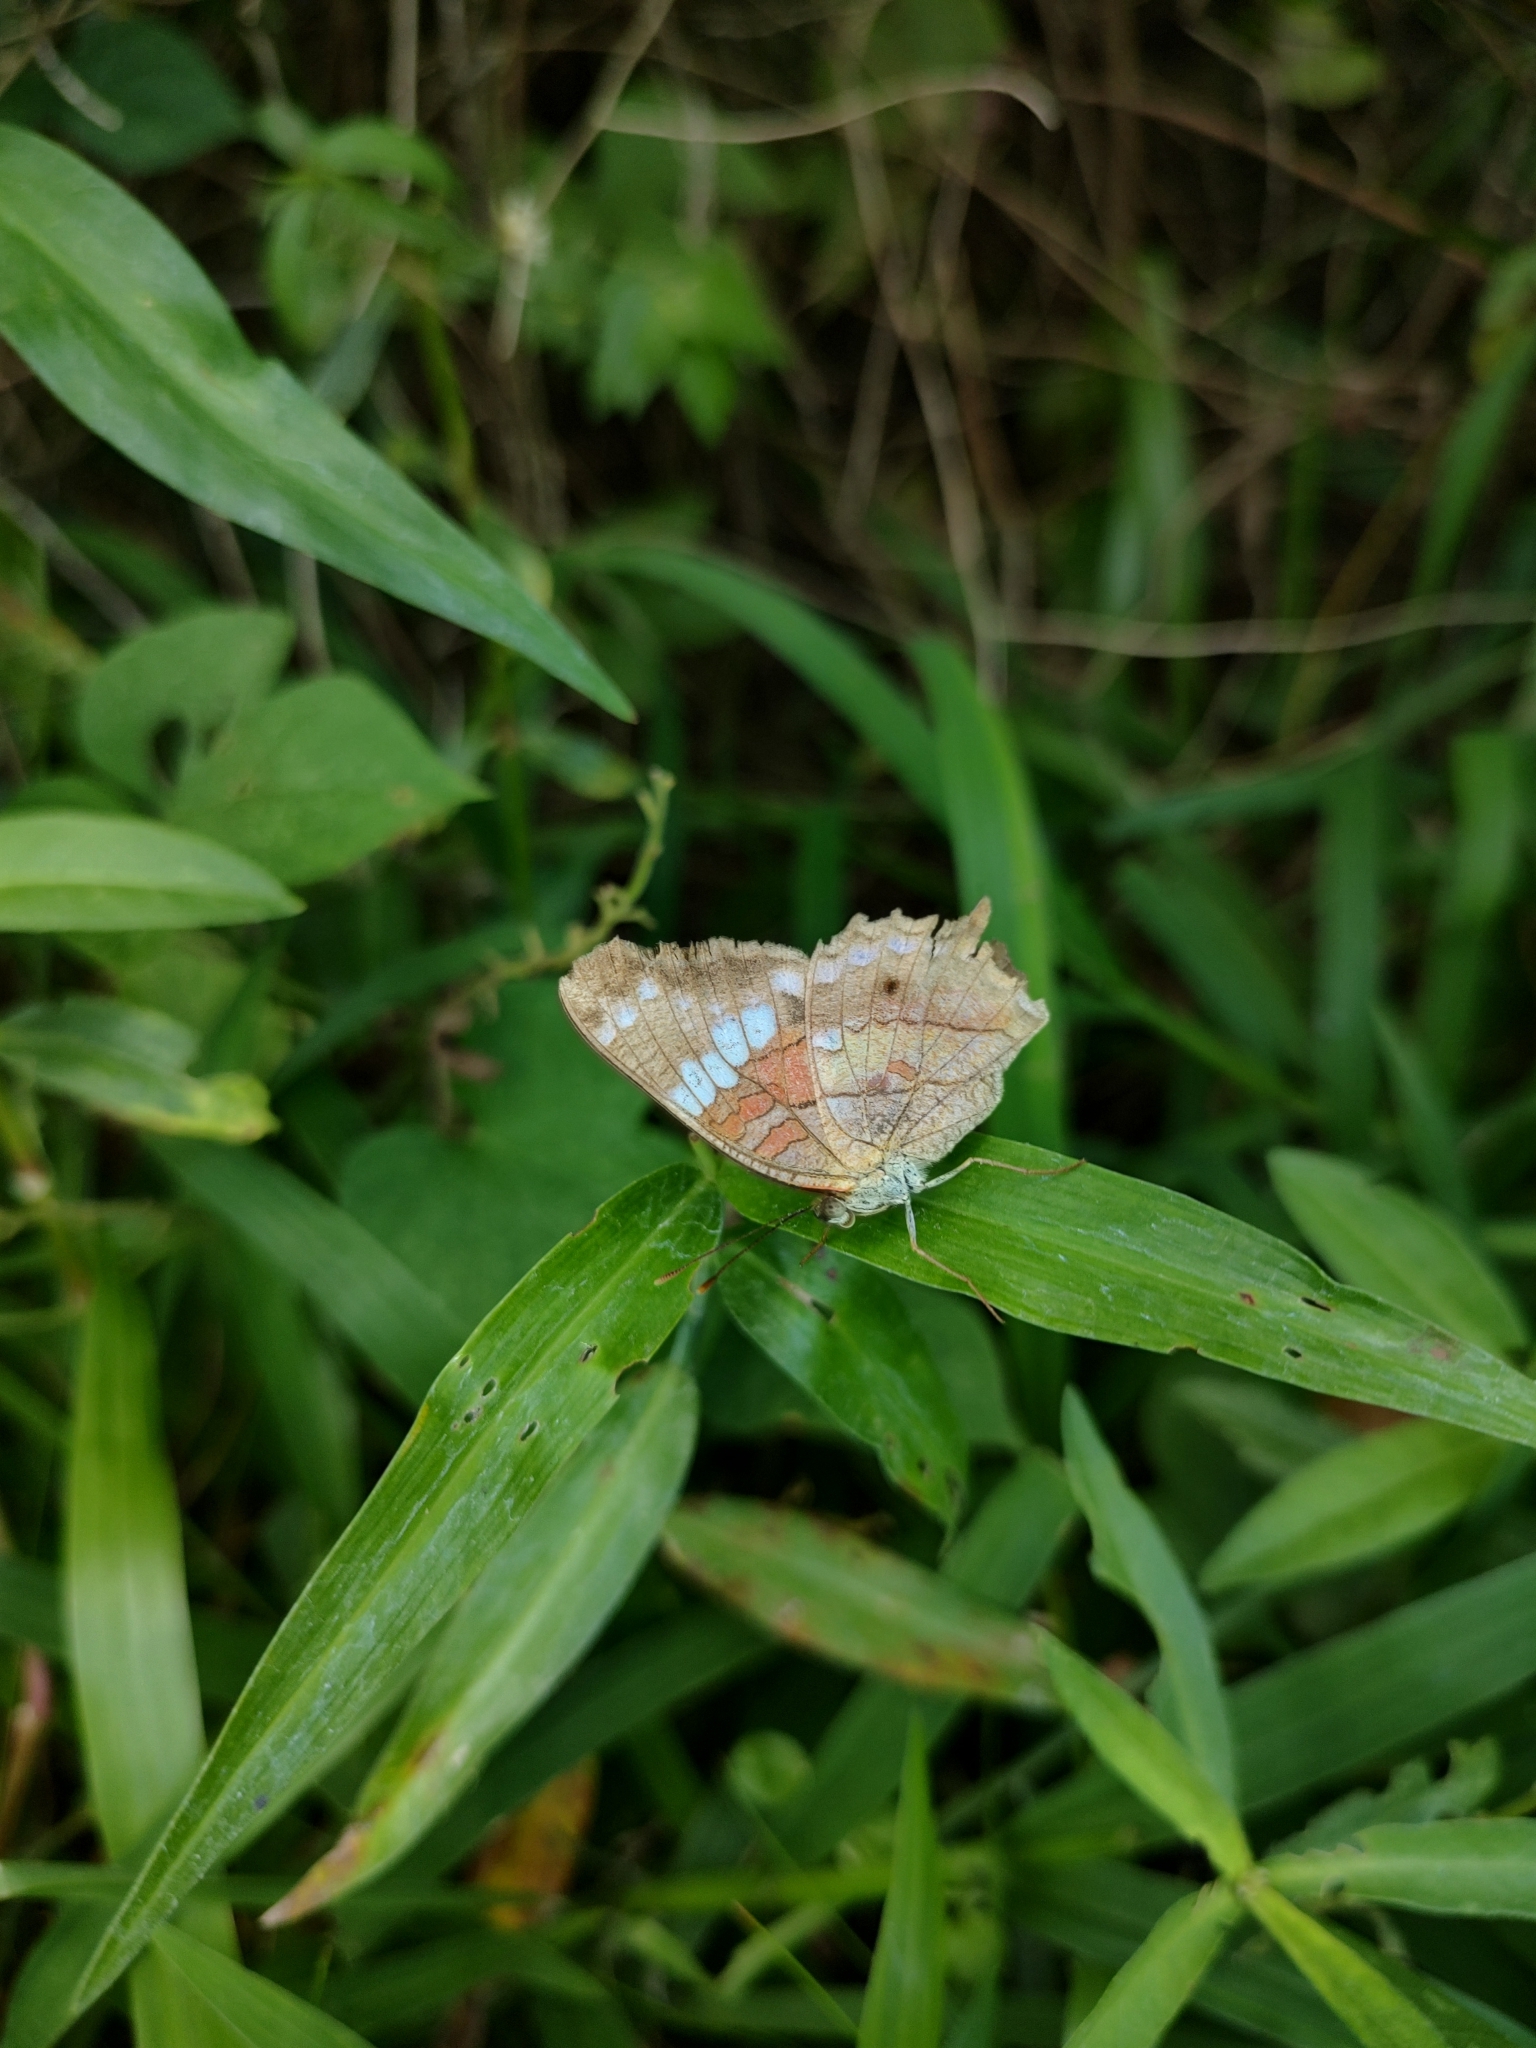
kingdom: Animalia
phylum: Arthropoda
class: Insecta
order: Lepidoptera
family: Nymphalidae
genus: Anartia
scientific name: Anartia amathea
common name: Red peacock
